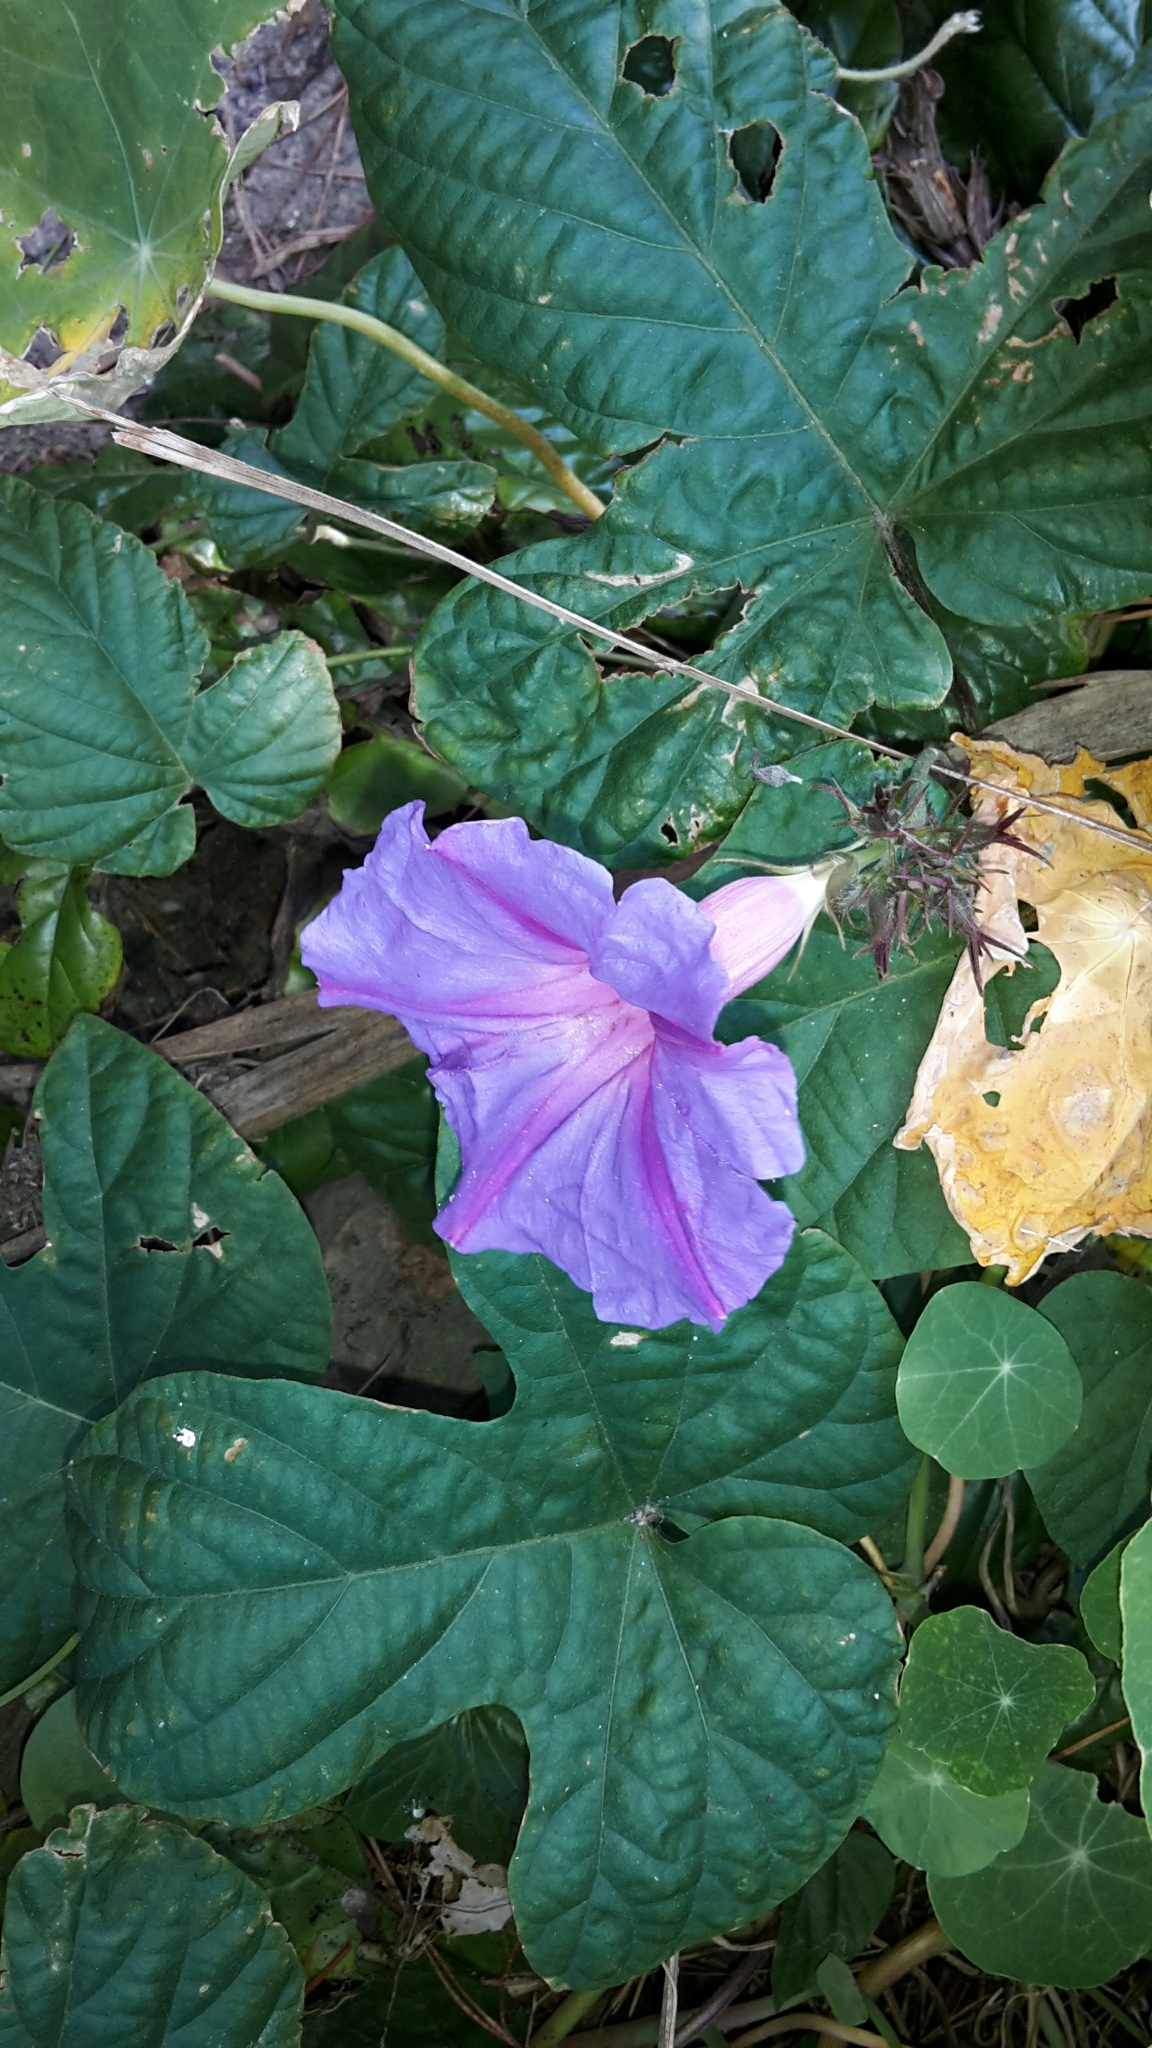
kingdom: Plantae
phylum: Tracheophyta
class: Magnoliopsida
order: Solanales
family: Convolvulaceae
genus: Ipomoea
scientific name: Ipomoea indica
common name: Blue dawnflower
